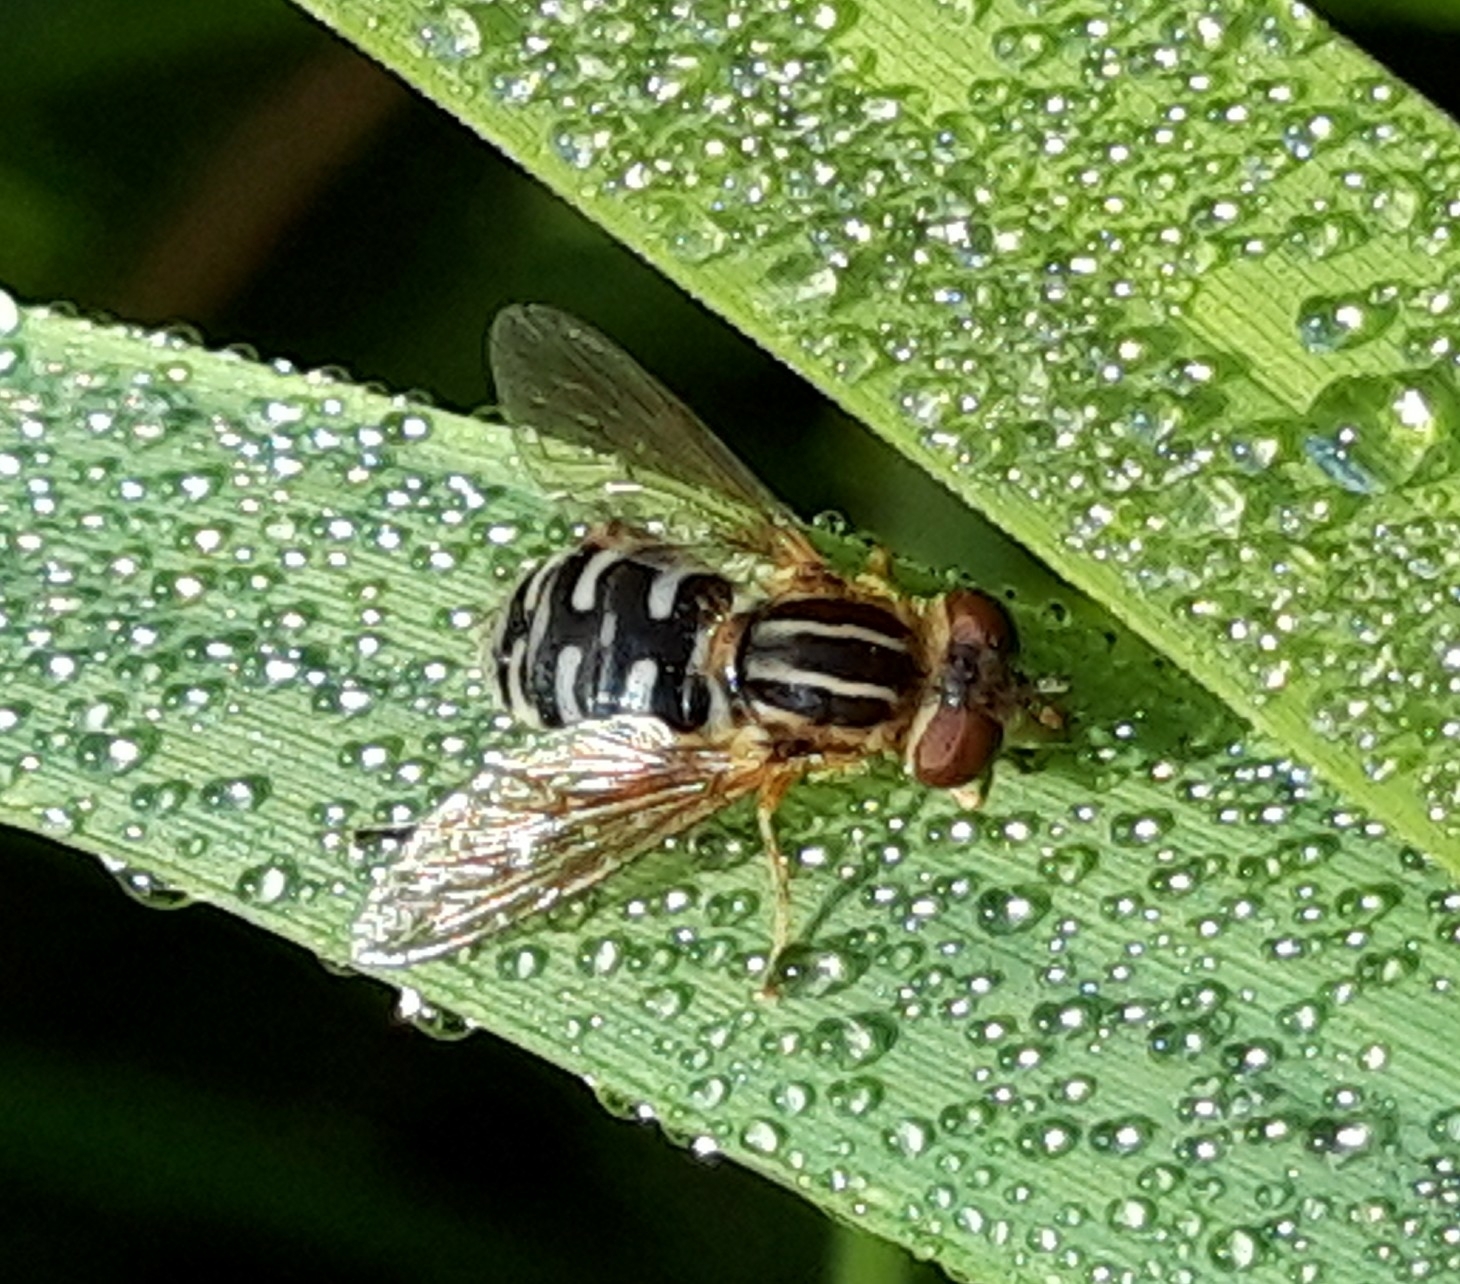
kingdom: Animalia
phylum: Arthropoda
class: Insecta
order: Diptera
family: Syrphidae
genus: Eurimyia
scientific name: Eurimyia lineatus
